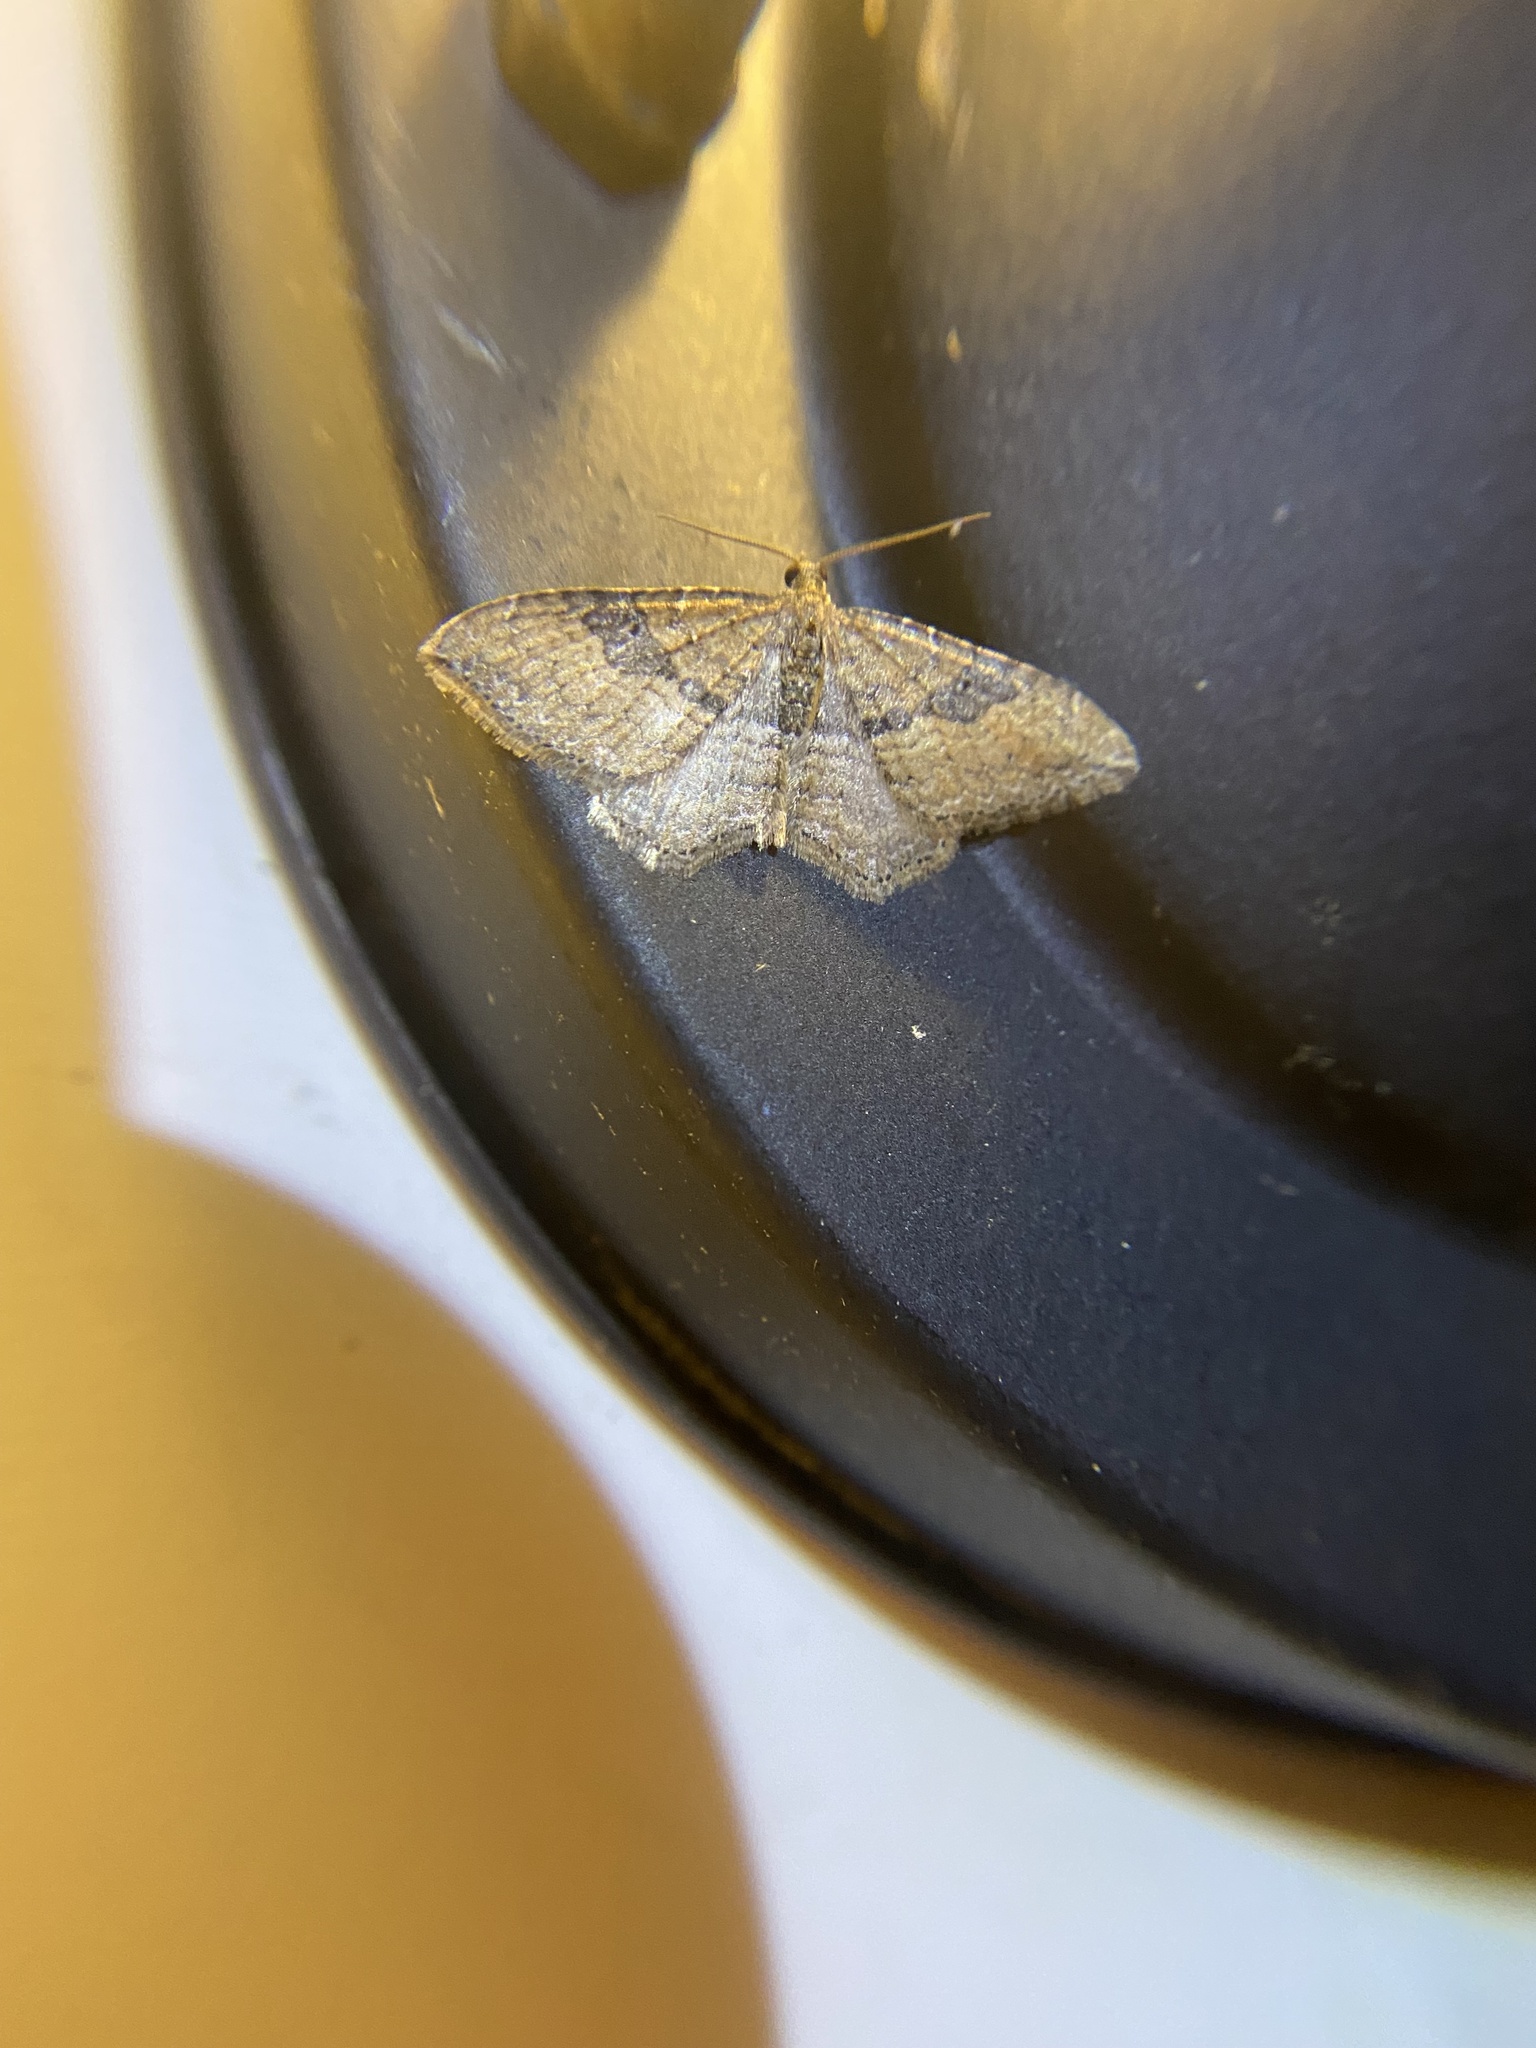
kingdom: Animalia
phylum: Arthropoda
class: Insecta
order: Lepidoptera
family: Geometridae
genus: Orthonama
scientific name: Orthonama obstipata
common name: The gem
